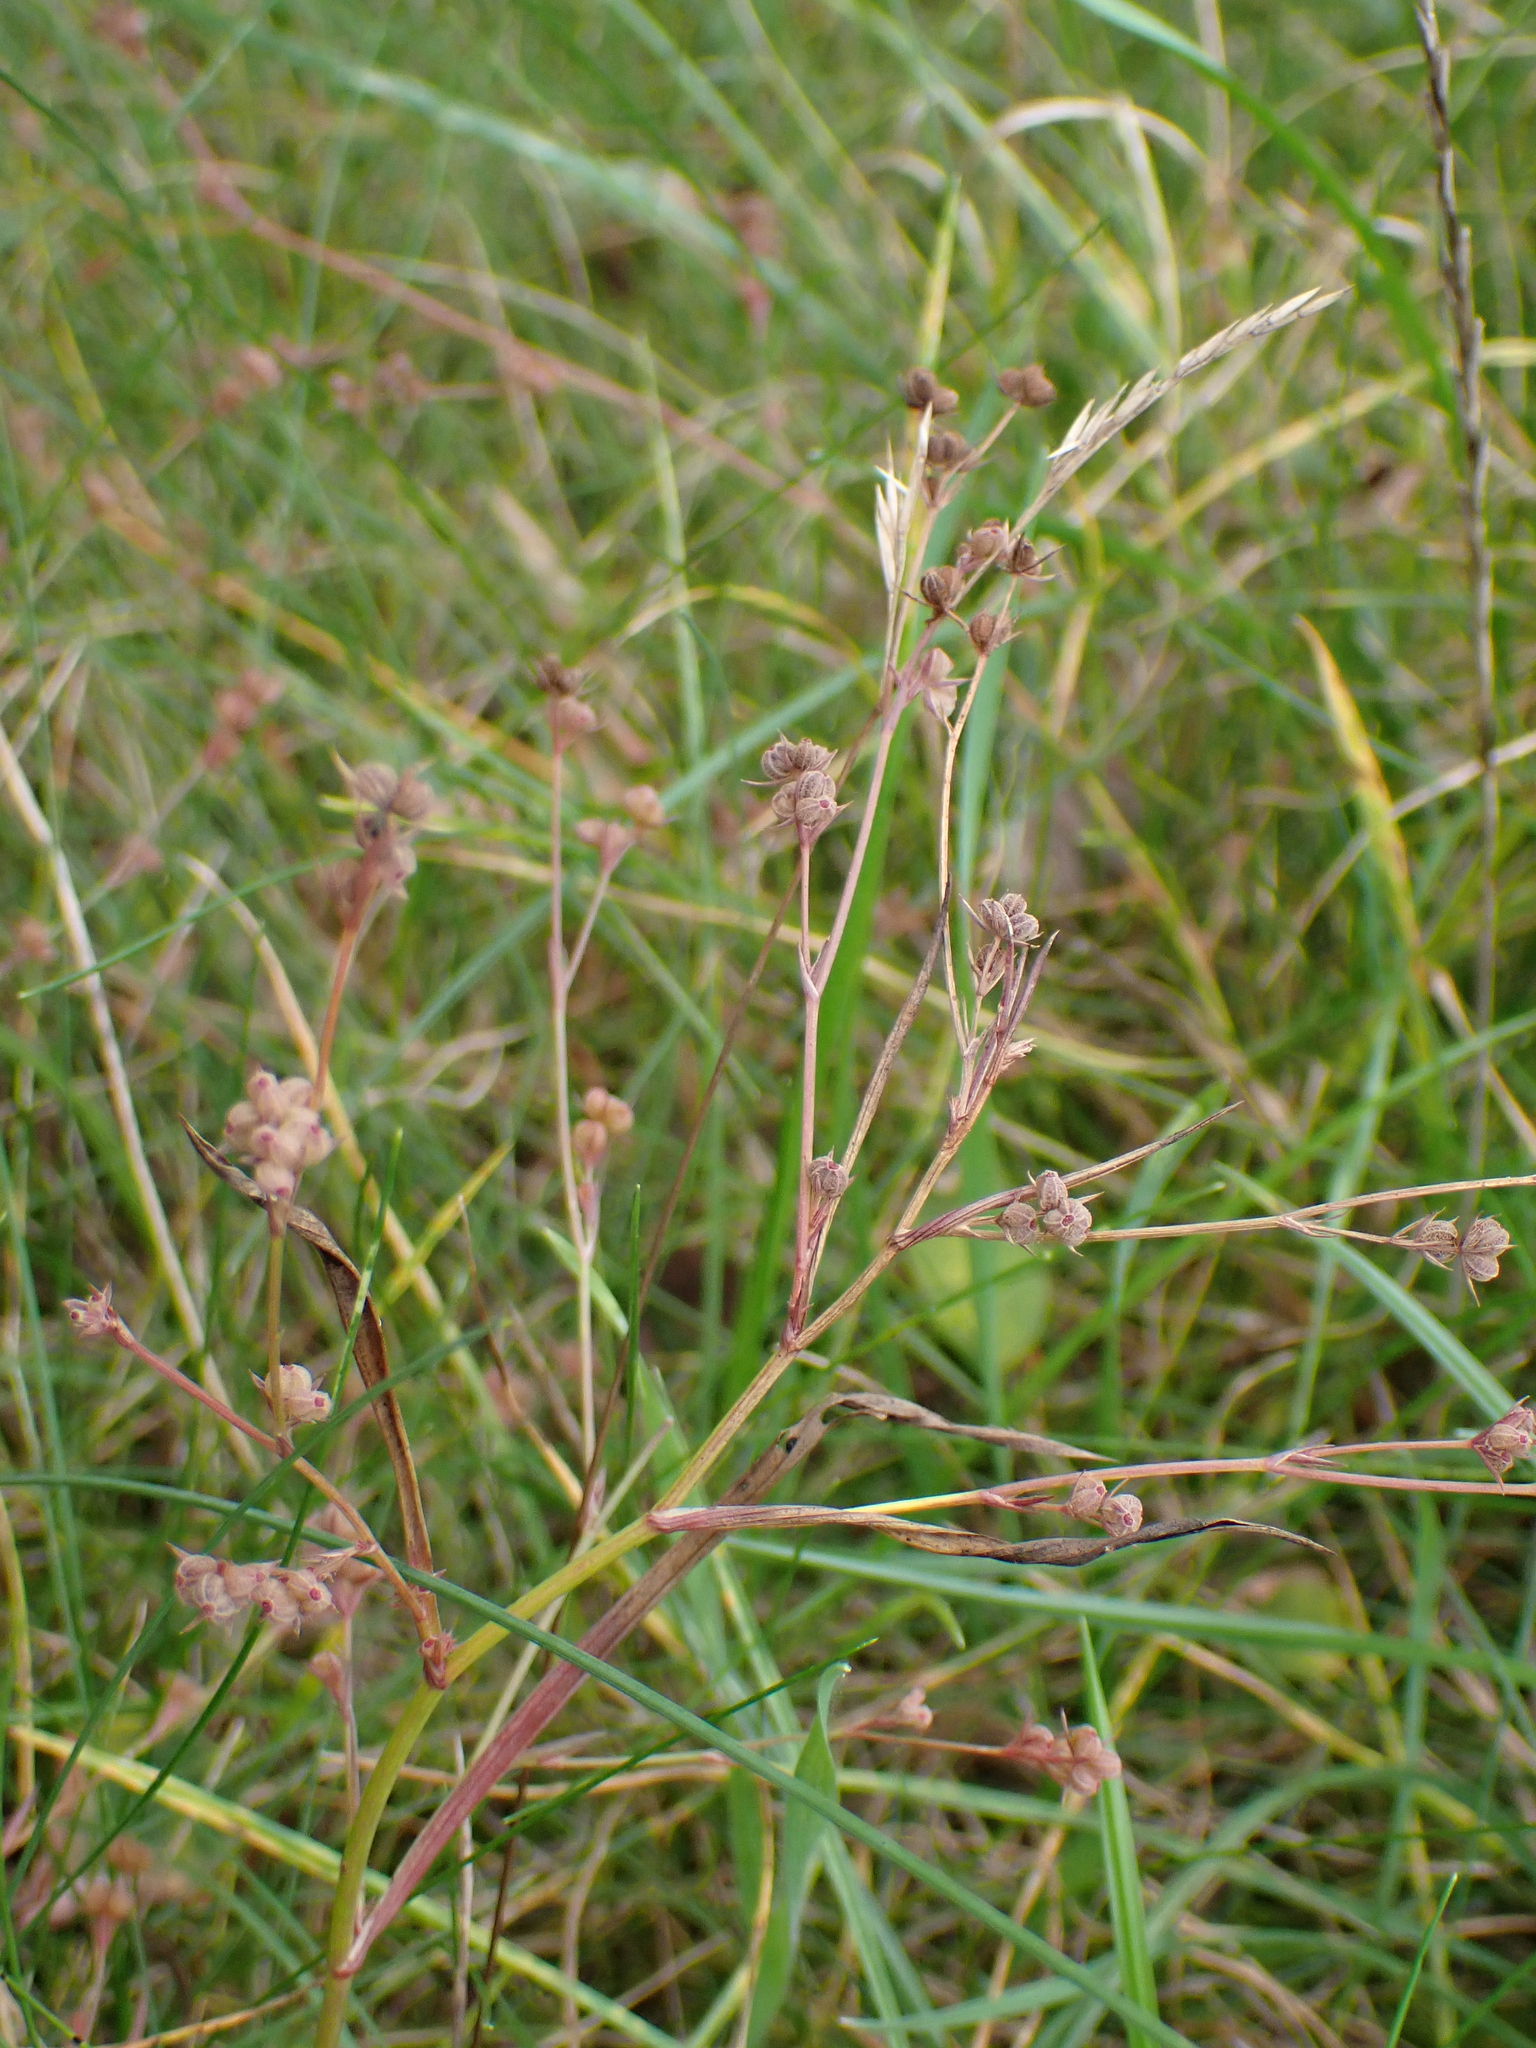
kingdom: Plantae
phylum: Tracheophyta
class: Magnoliopsida
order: Apiales
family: Apiaceae
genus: Bupleurum
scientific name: Bupleurum tenuissimum
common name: Slender hare's-ear
